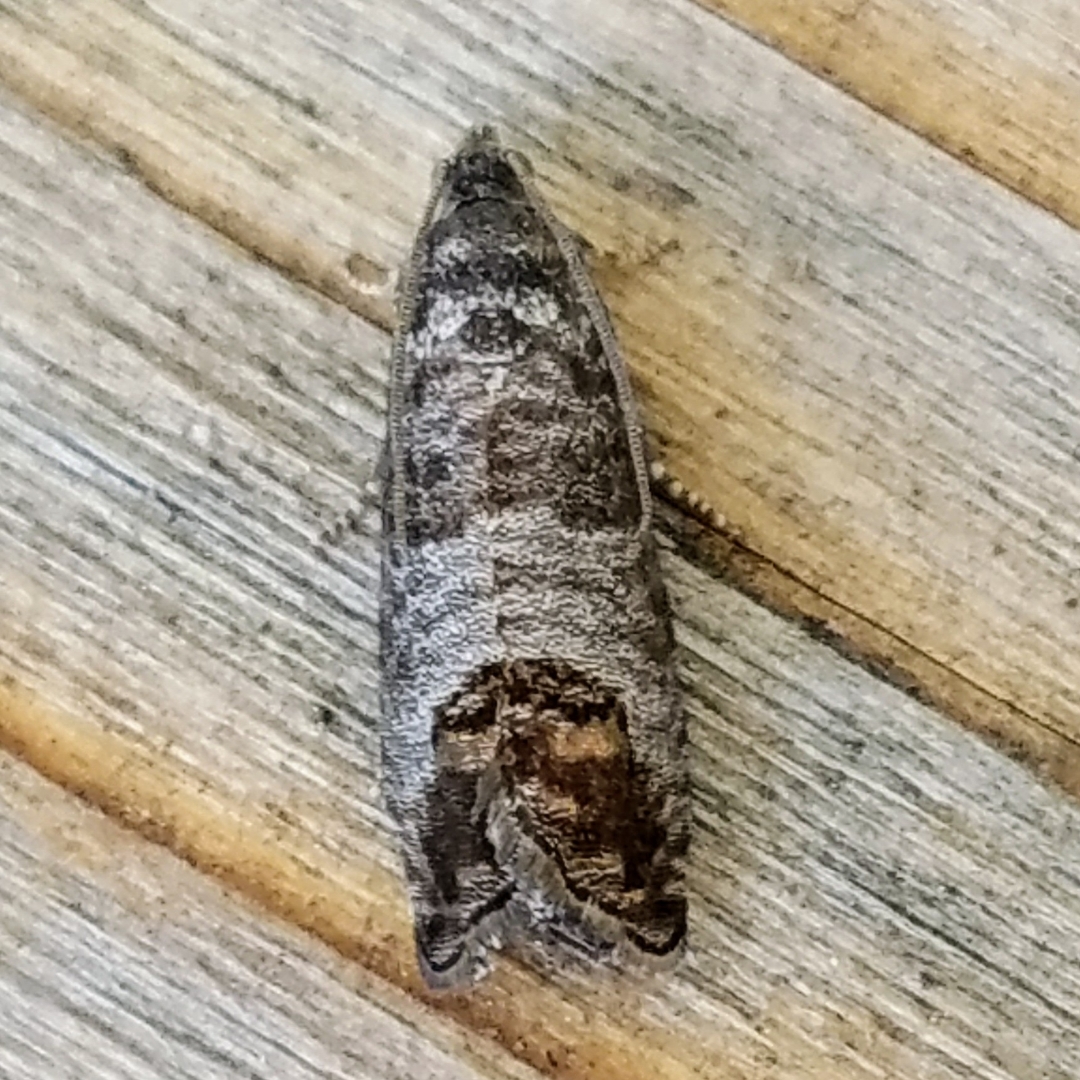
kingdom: Animalia
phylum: Arthropoda
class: Insecta
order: Lepidoptera
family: Tortricidae
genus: Cydia
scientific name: Cydia pomonella
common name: Codling moth
